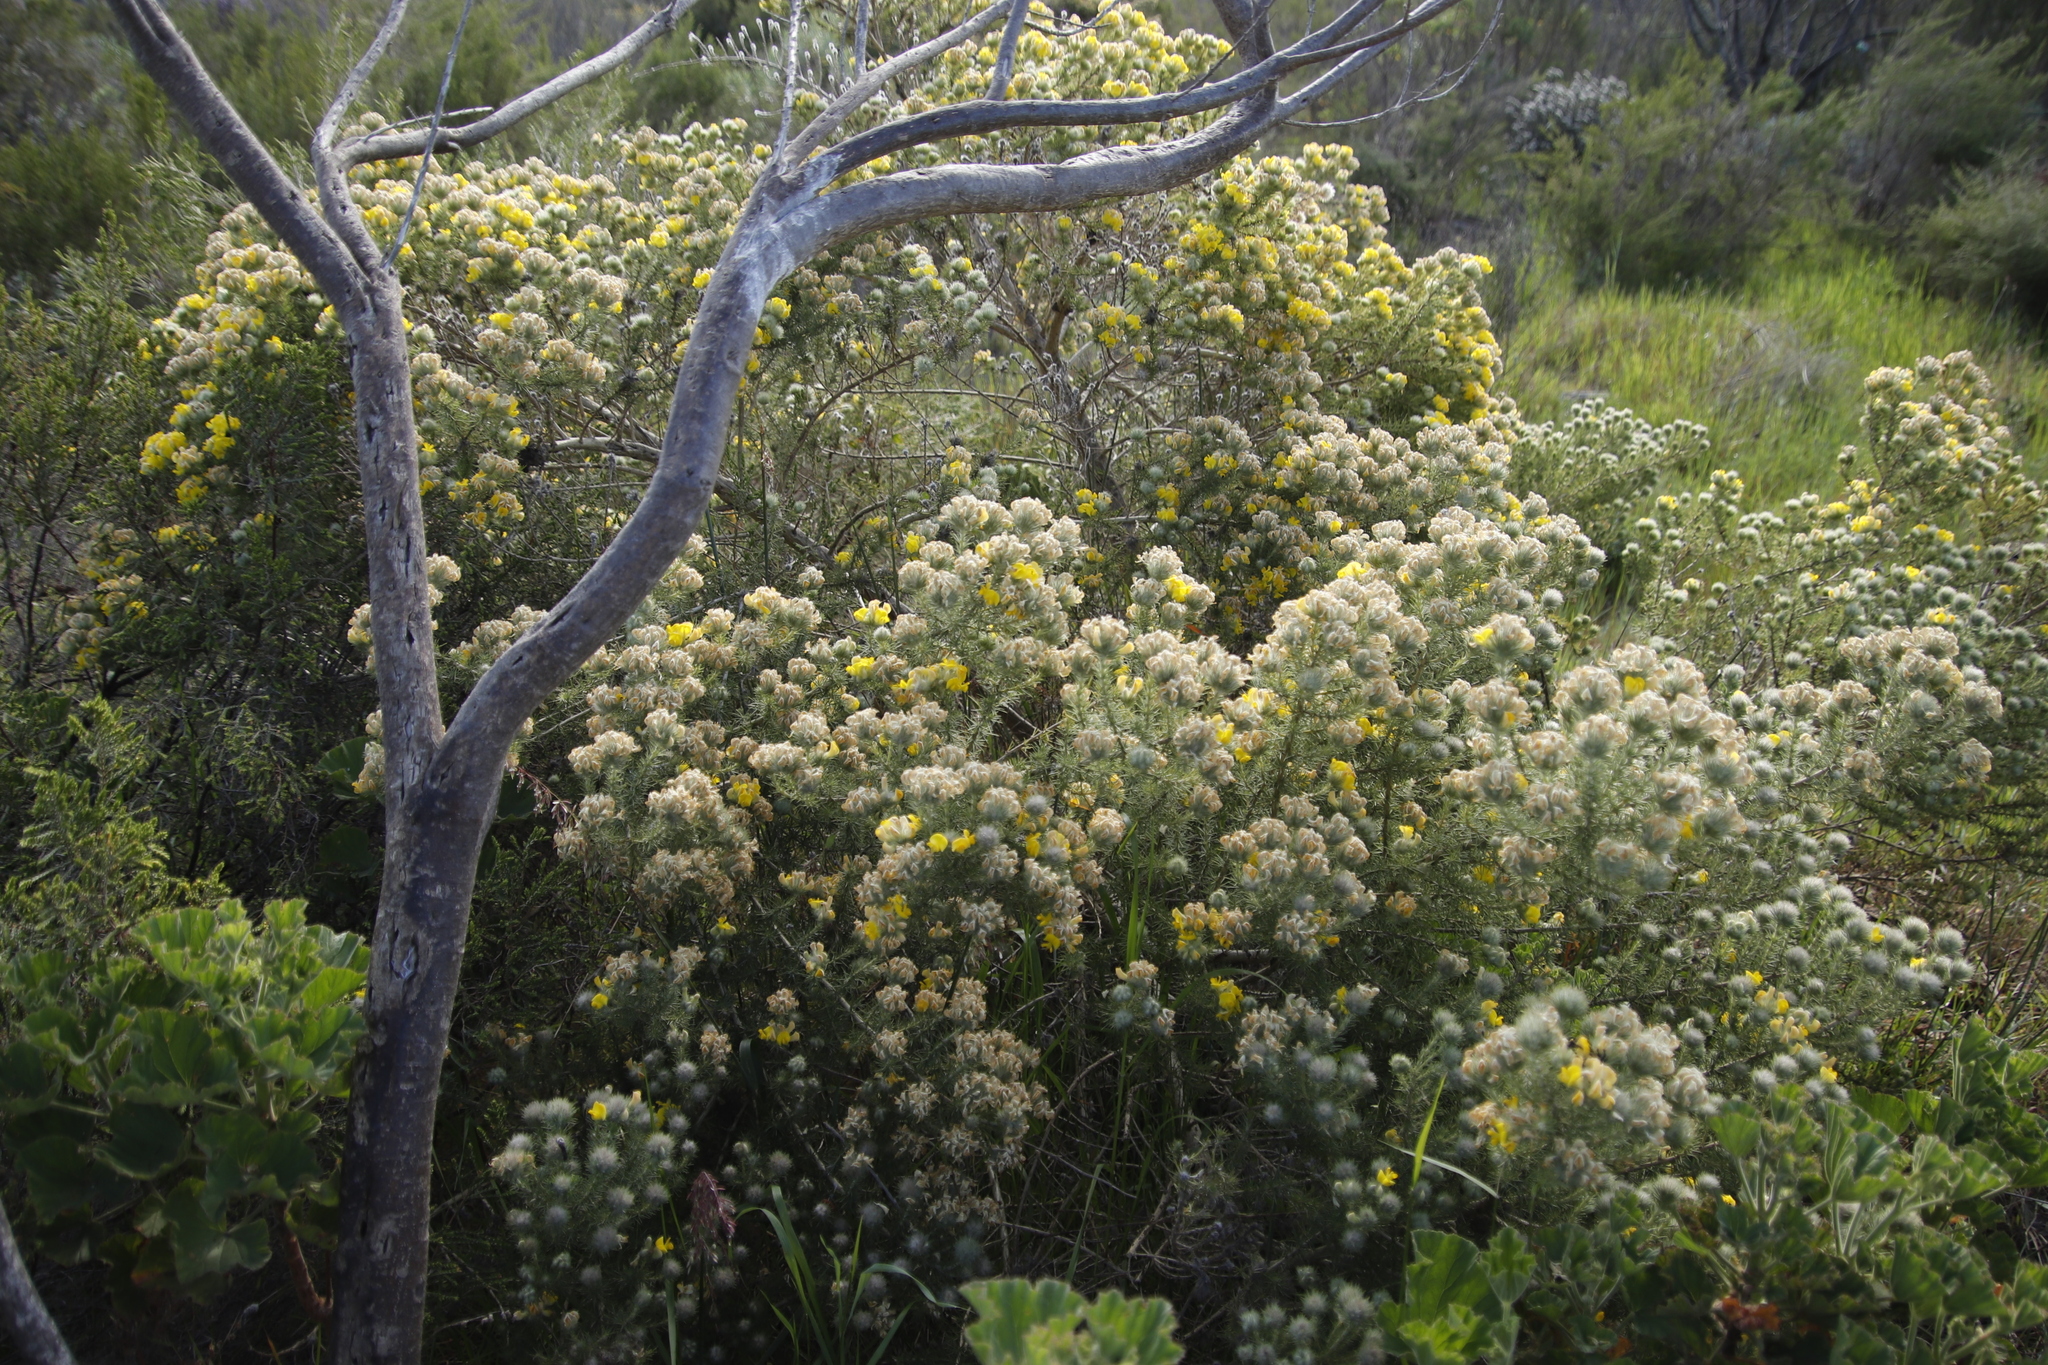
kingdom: Plantae
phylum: Tracheophyta
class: Magnoliopsida
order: Fabales
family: Fabaceae
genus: Aspalathus
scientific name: Aspalathus chenopoda
